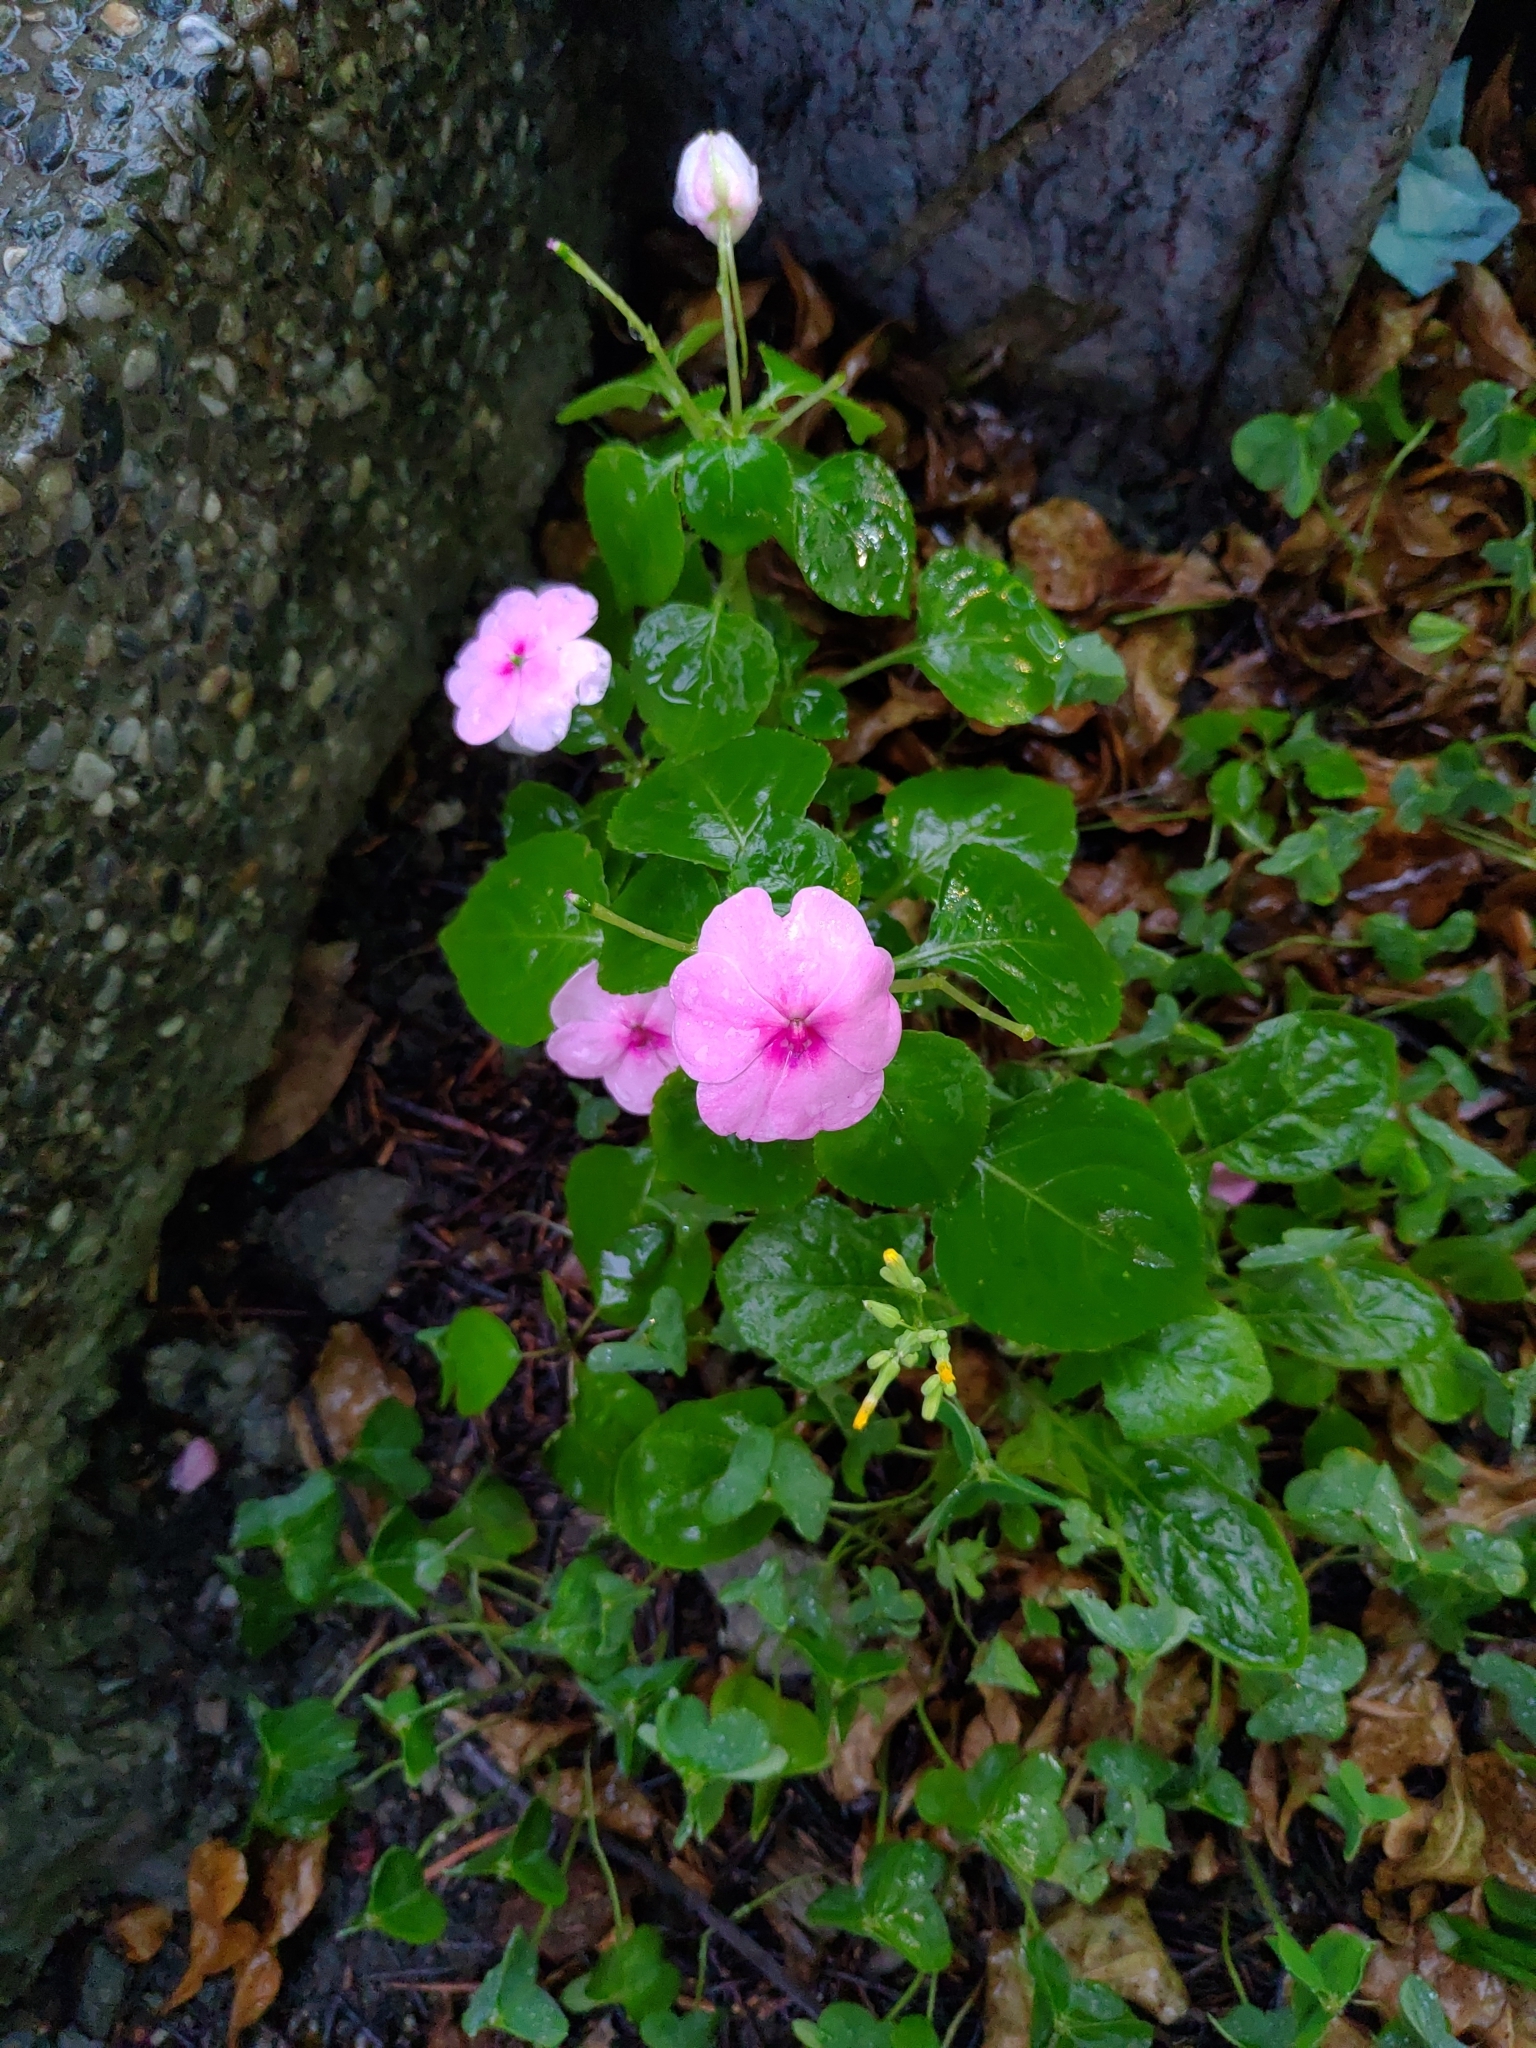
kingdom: Plantae
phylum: Tracheophyta
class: Magnoliopsida
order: Ericales
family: Balsaminaceae
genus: Impatiens
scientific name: Impatiens walleriana
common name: Buzzy lizzy
